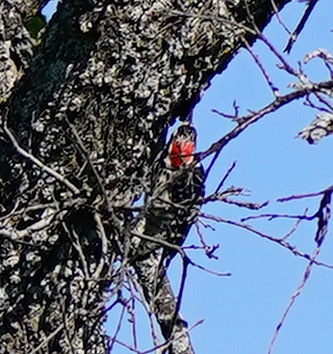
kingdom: Animalia
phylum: Chordata
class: Aves
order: Piciformes
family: Picidae
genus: Dryobates
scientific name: Dryobates nuttallii
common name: Nuttall's woodpecker
